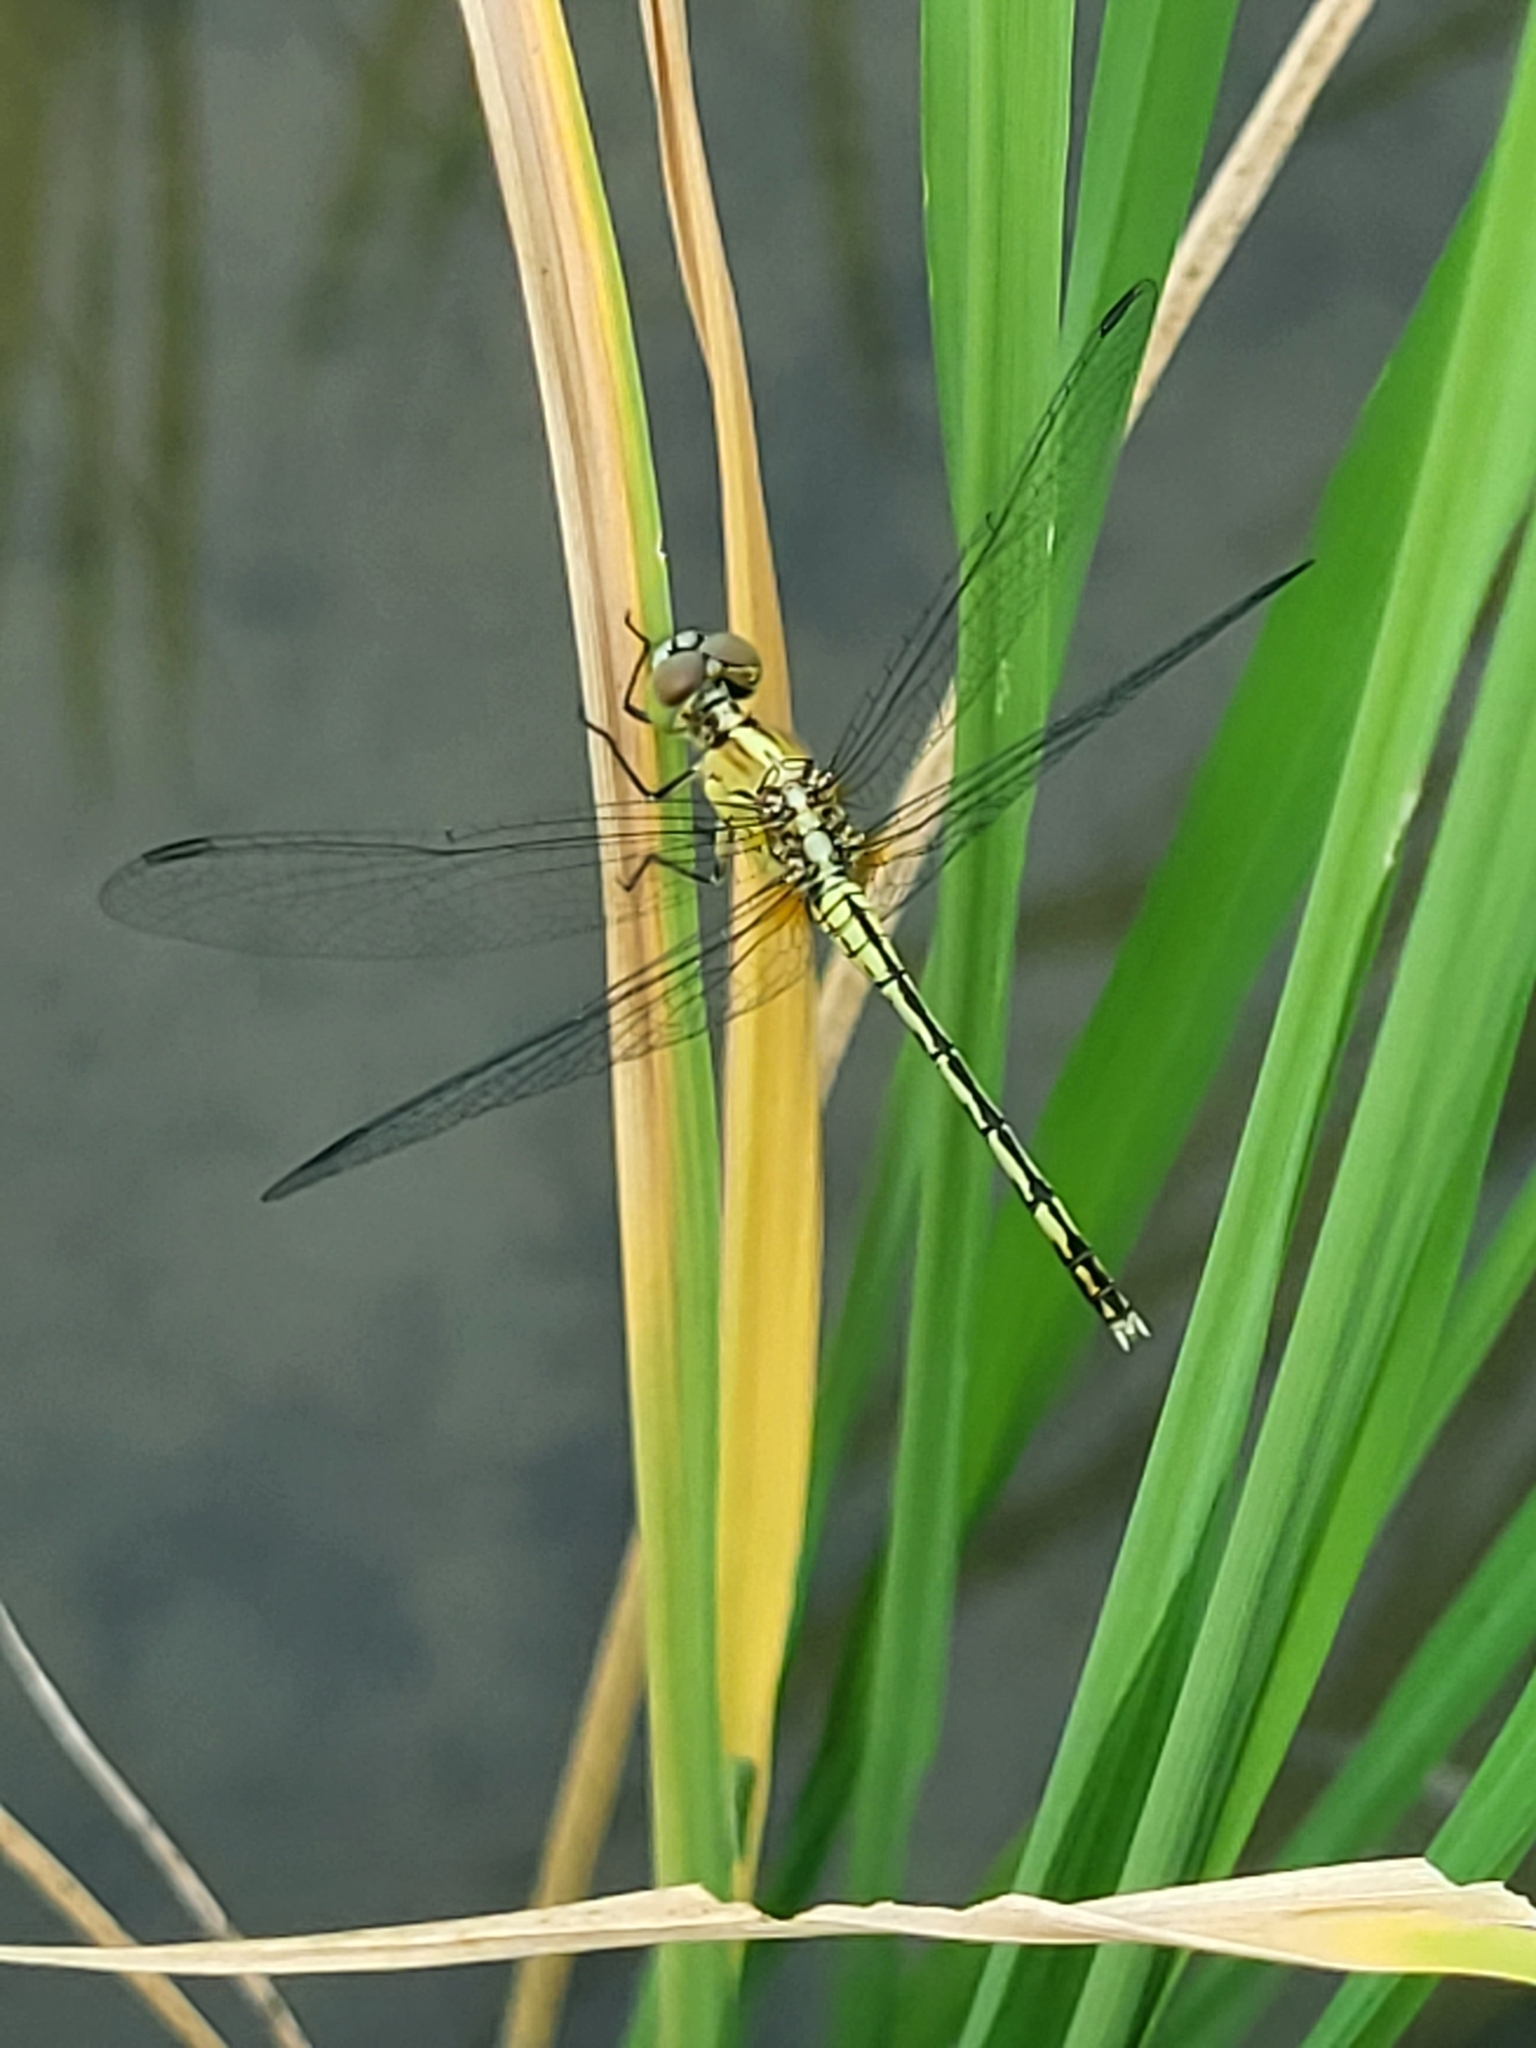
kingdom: Animalia
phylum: Arthropoda
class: Insecta
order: Odonata
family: Libellulidae
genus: Diplacodes
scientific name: Diplacodes trivialis
